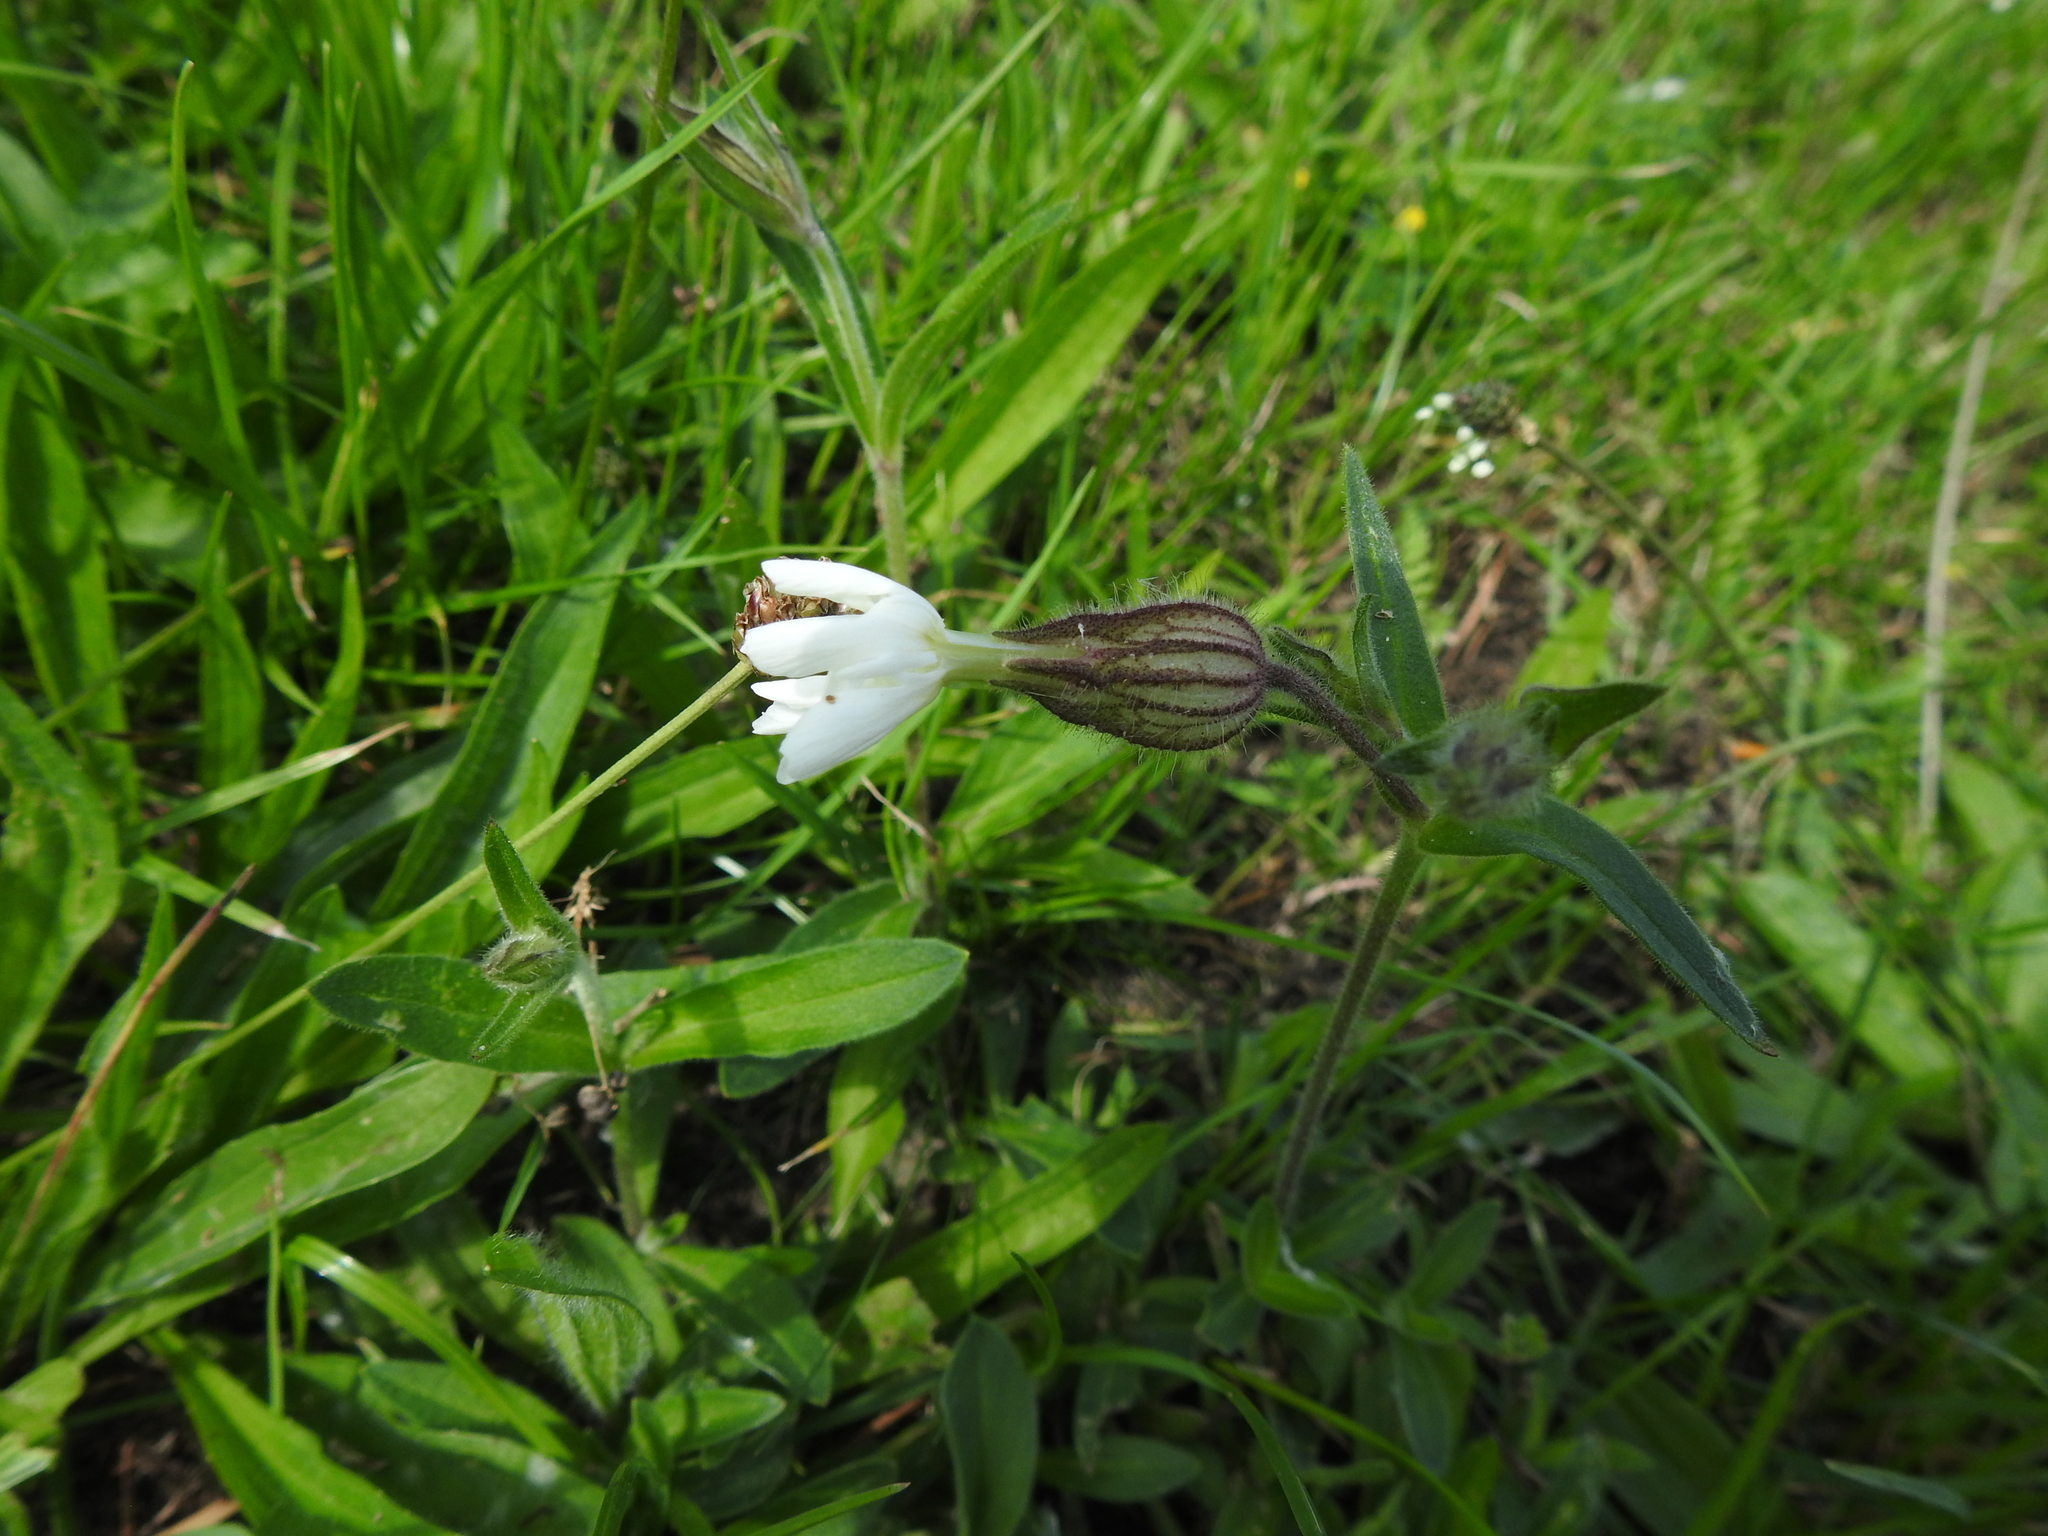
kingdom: Plantae
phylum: Tracheophyta
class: Magnoliopsida
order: Caryophyllales
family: Caryophyllaceae
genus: Silene
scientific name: Silene latifolia
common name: White campion
